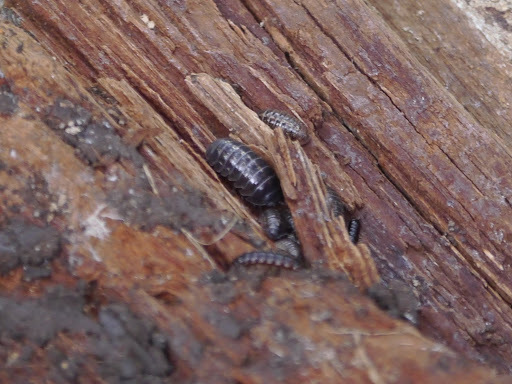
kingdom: Animalia
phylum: Arthropoda
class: Malacostraca
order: Isopoda
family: Armadillidiidae
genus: Armadillidium
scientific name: Armadillidium vulgare
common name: Common pill woodlouse
